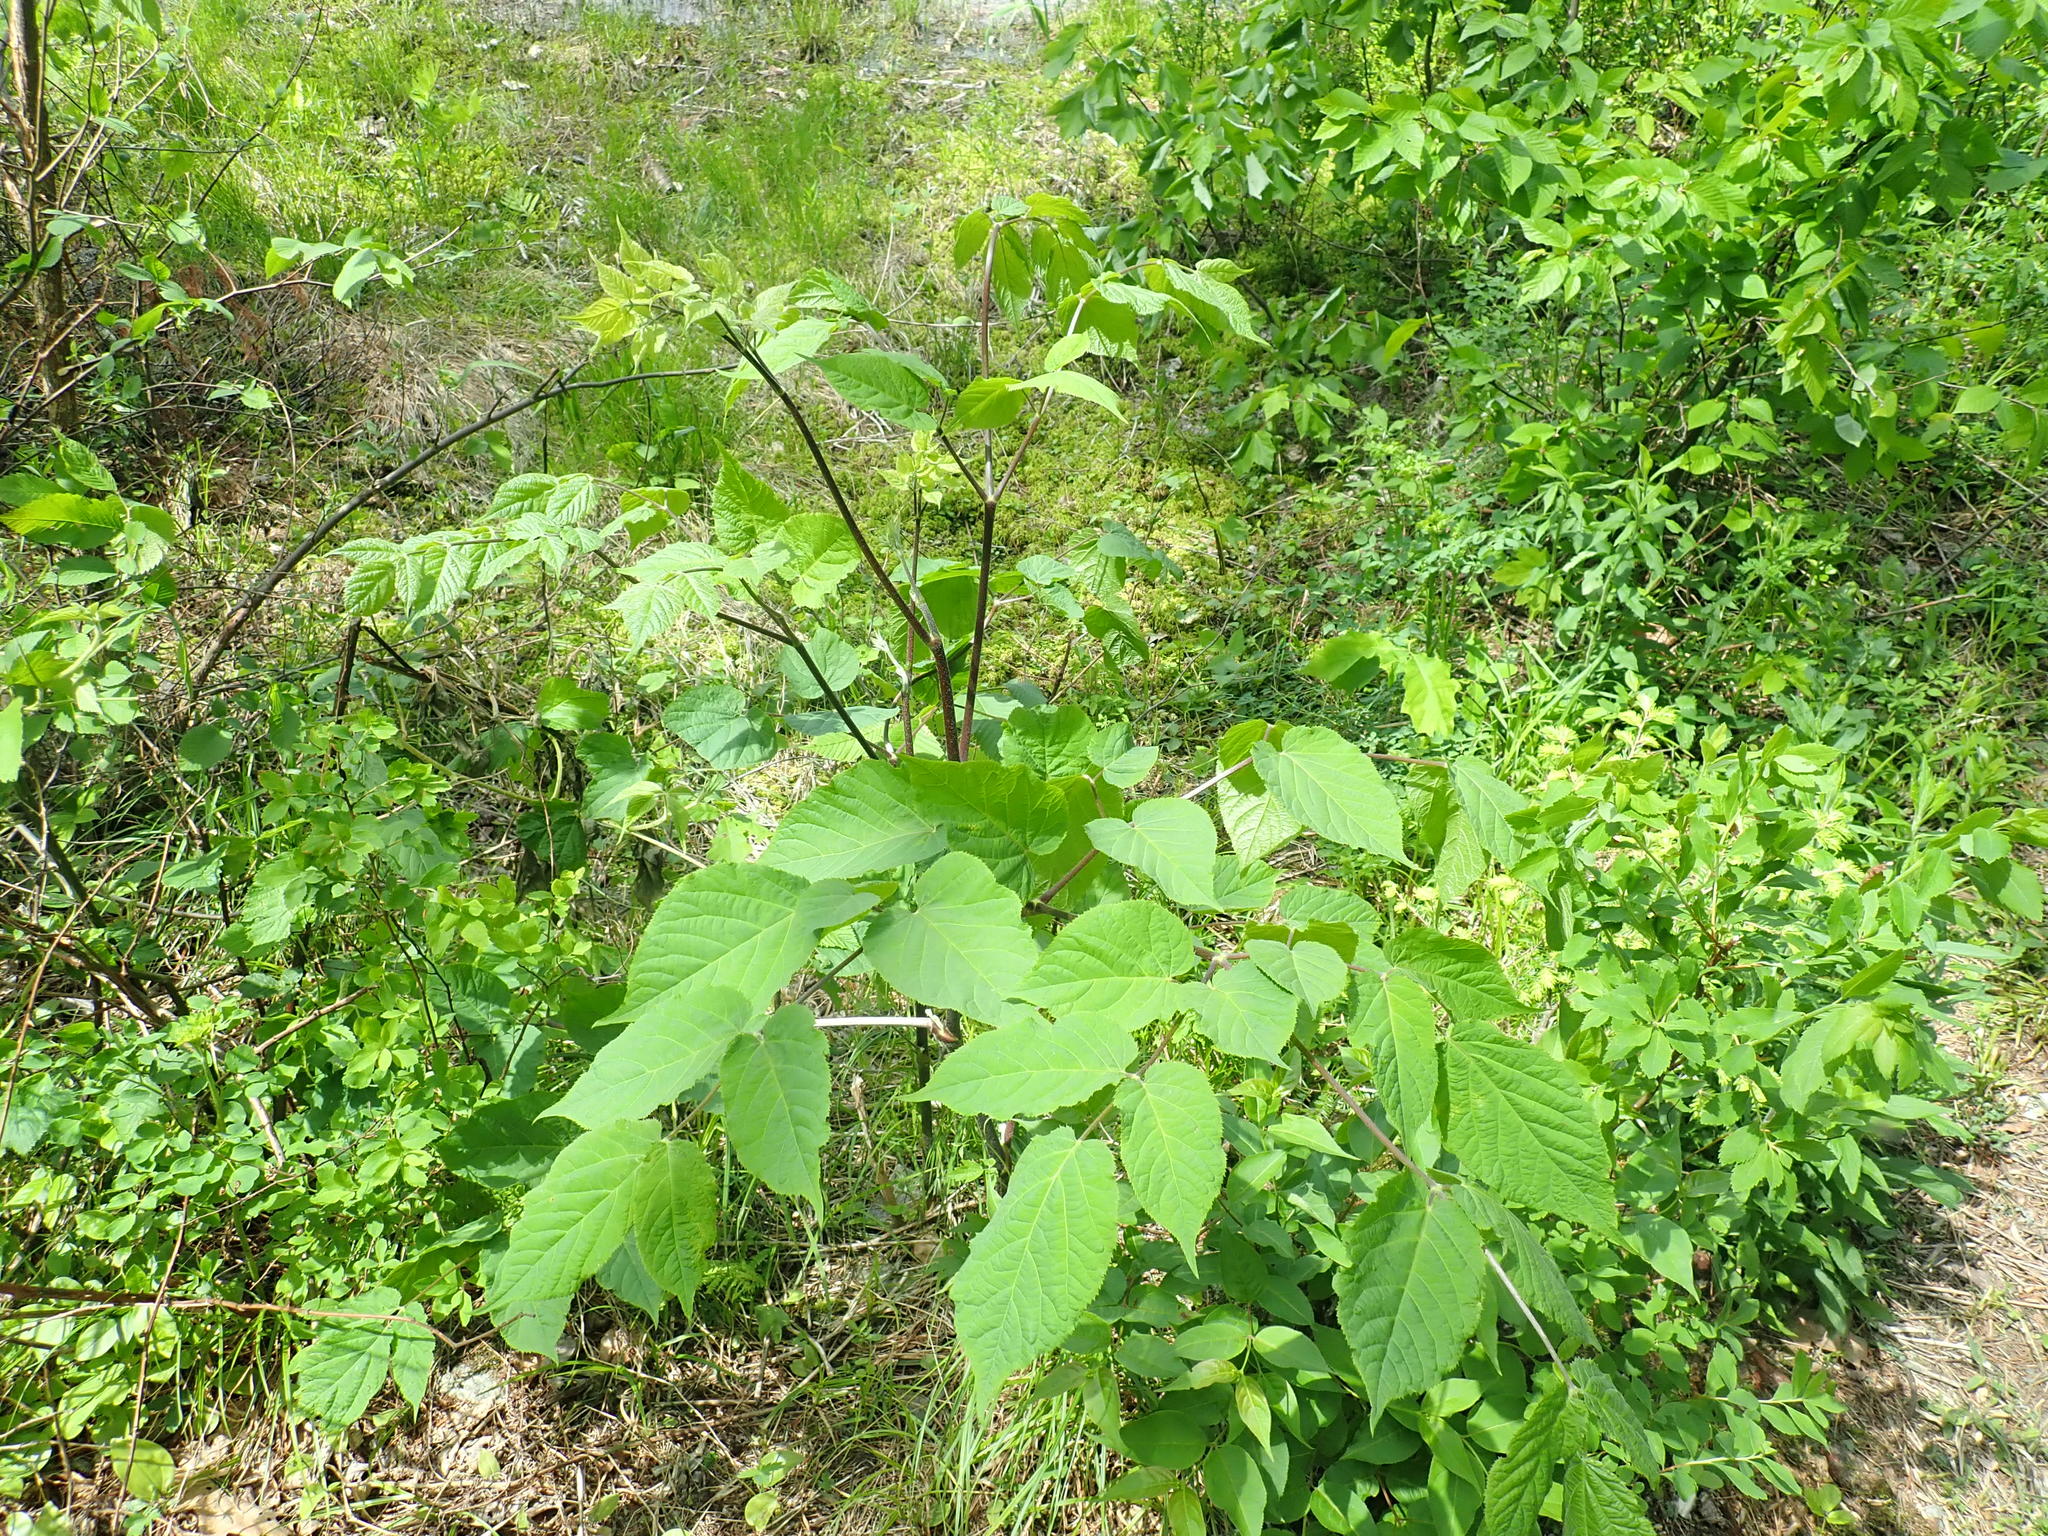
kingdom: Plantae
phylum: Tracheophyta
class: Magnoliopsida
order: Apiales
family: Araliaceae
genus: Aralia
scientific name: Aralia racemosa
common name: American-spikenard
